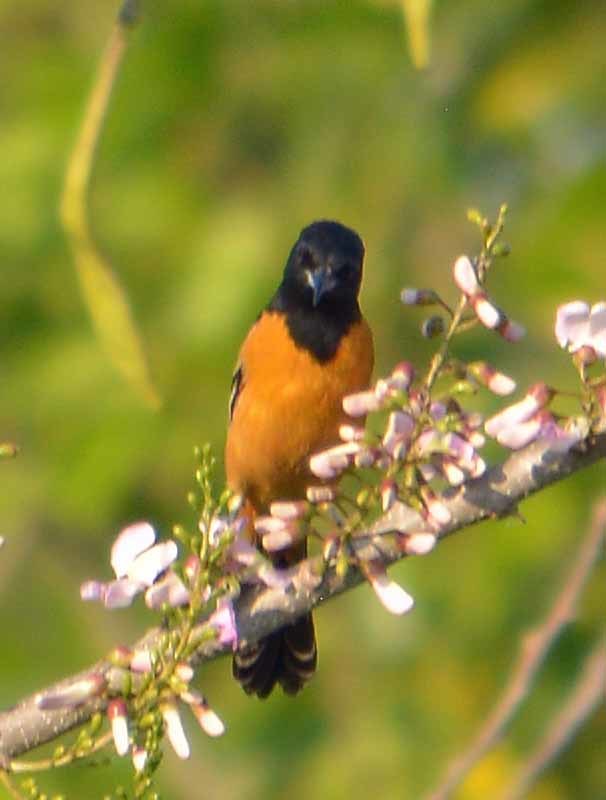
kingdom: Animalia
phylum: Chordata
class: Aves
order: Passeriformes
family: Icteridae
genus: Icterus
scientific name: Icterus spurius
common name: Orchard oriole
